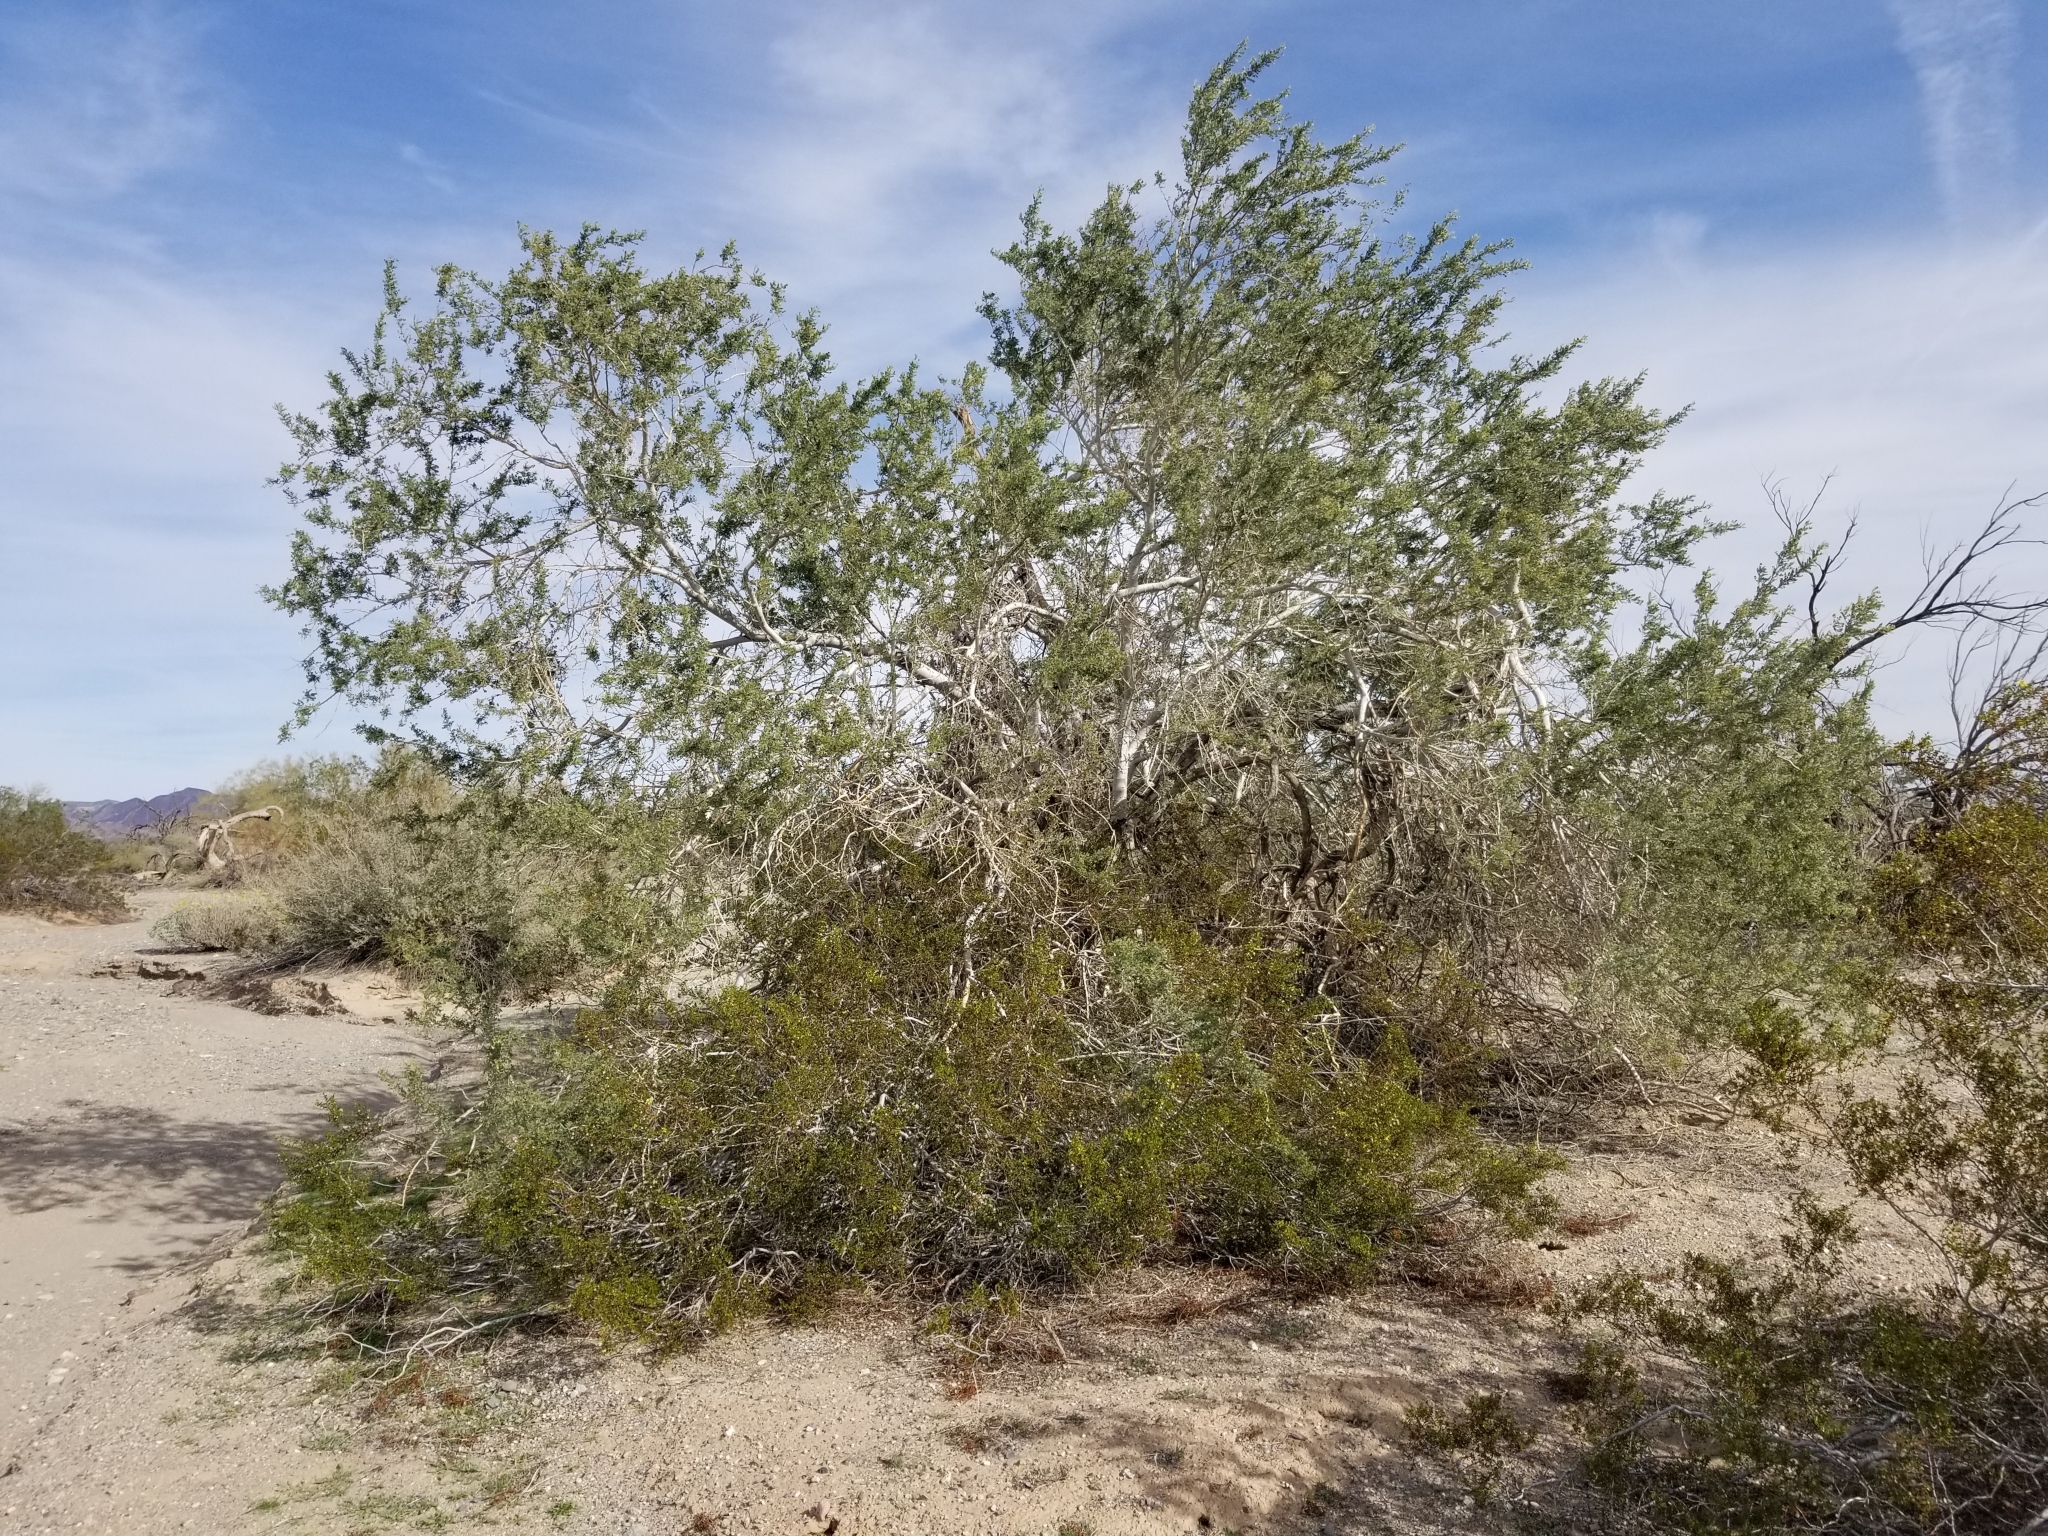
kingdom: Plantae
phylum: Tracheophyta
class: Magnoliopsida
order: Fabales
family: Fabaceae
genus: Olneya
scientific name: Olneya tesota
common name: Desert ironwood
